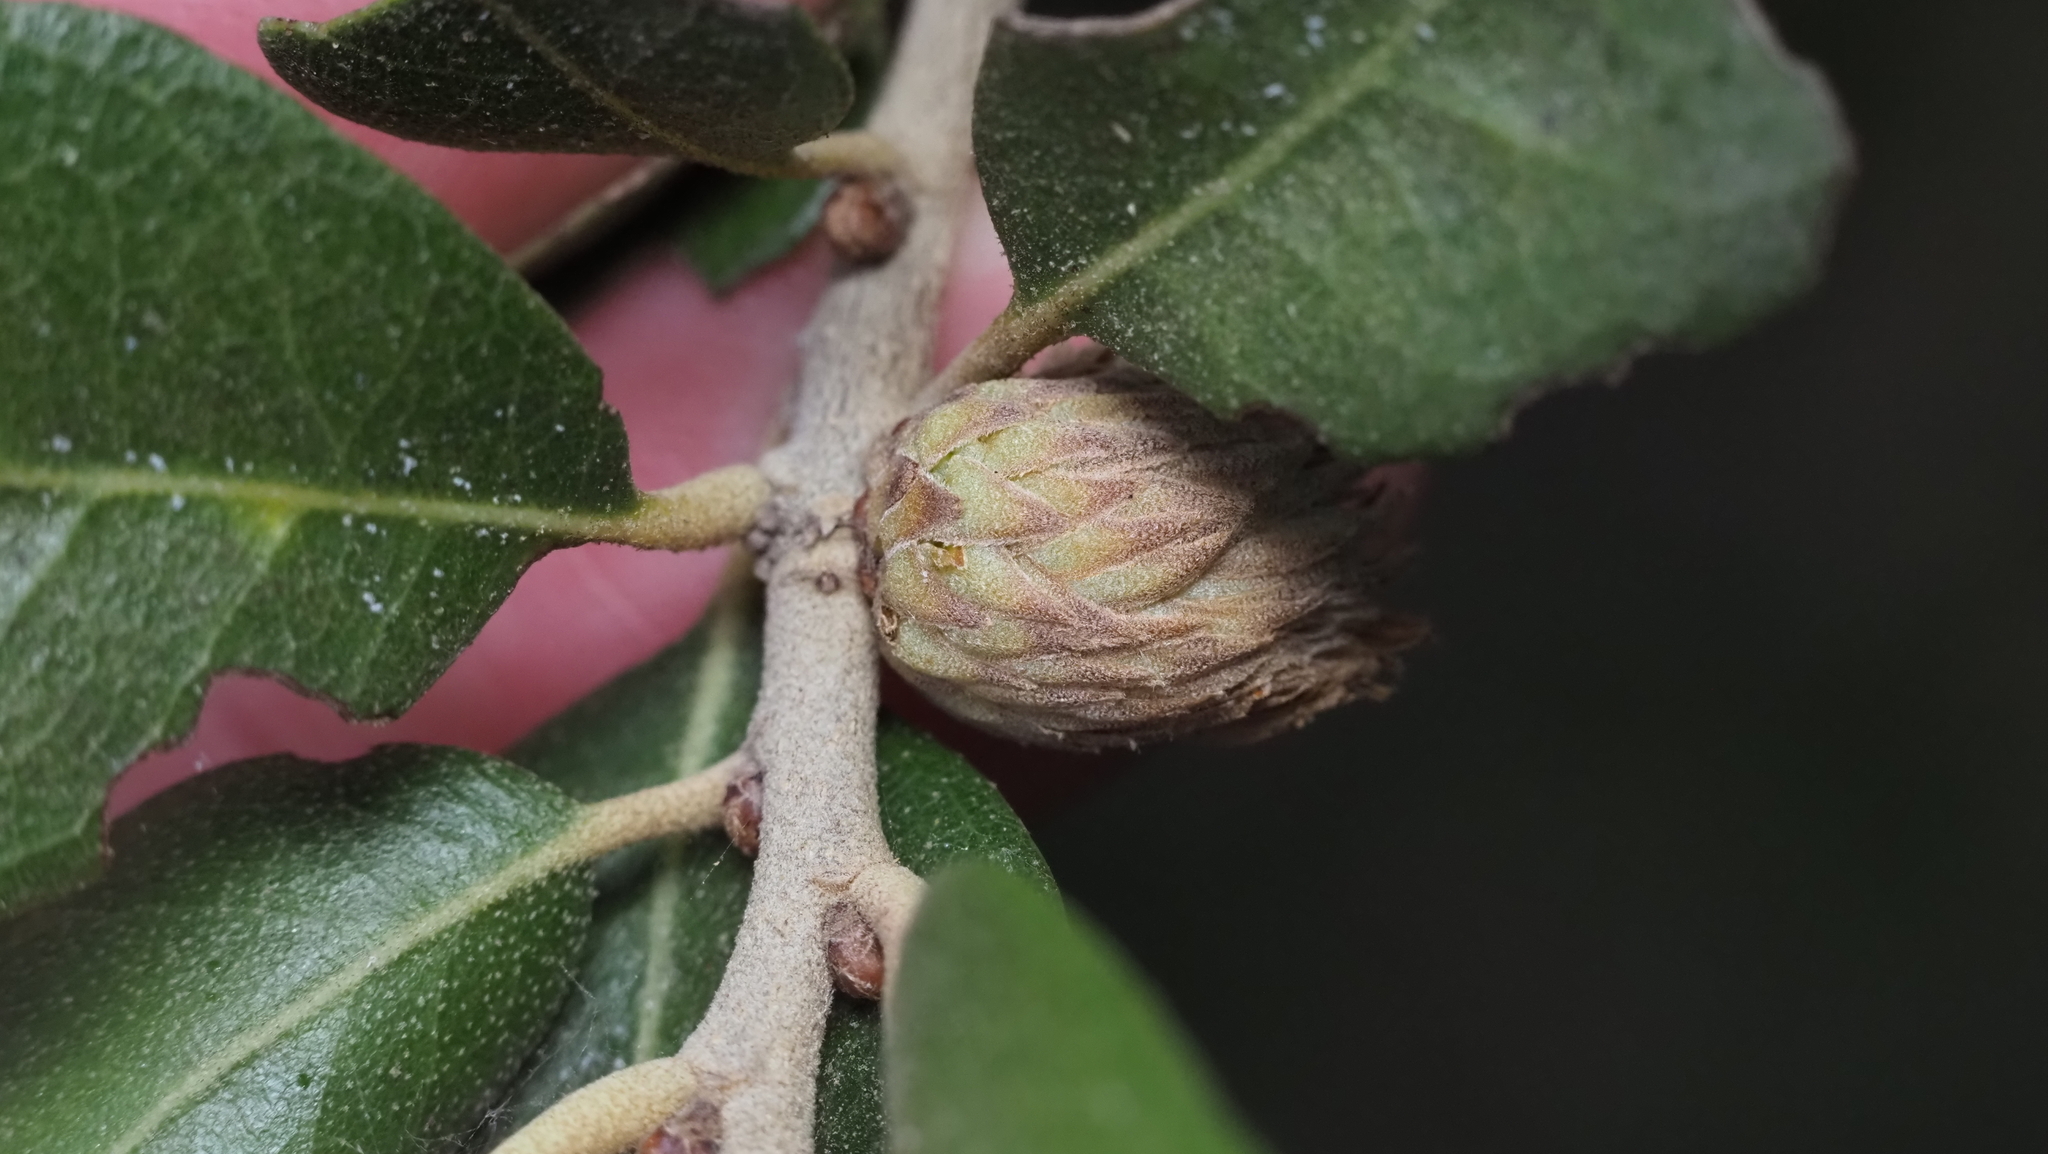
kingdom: Animalia
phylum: Arthropoda
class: Insecta
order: Hymenoptera
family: Cynipidae
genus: Andricus
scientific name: Andricus quercusfoliatus
